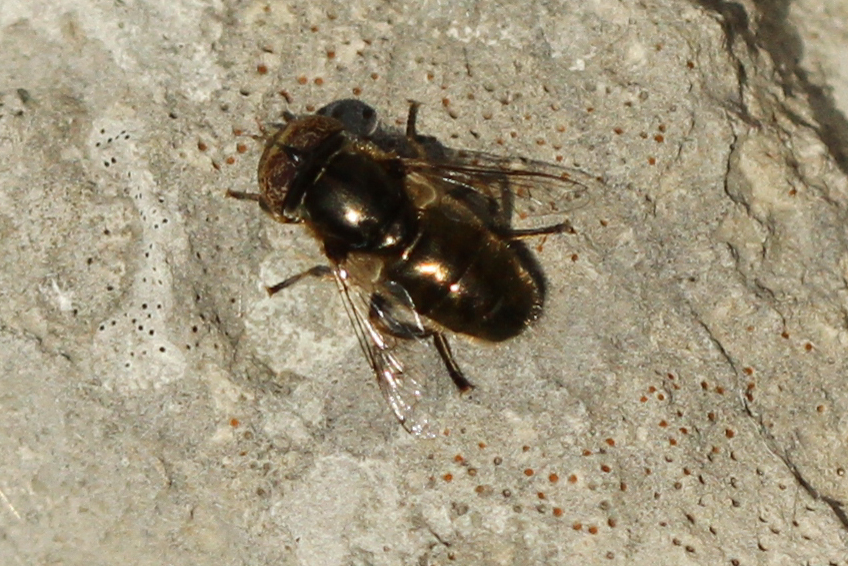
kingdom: Animalia
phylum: Arthropoda
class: Insecta
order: Diptera
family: Syrphidae
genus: Eristalinus
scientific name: Eristalinus aeneus
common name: Syrphid fly
